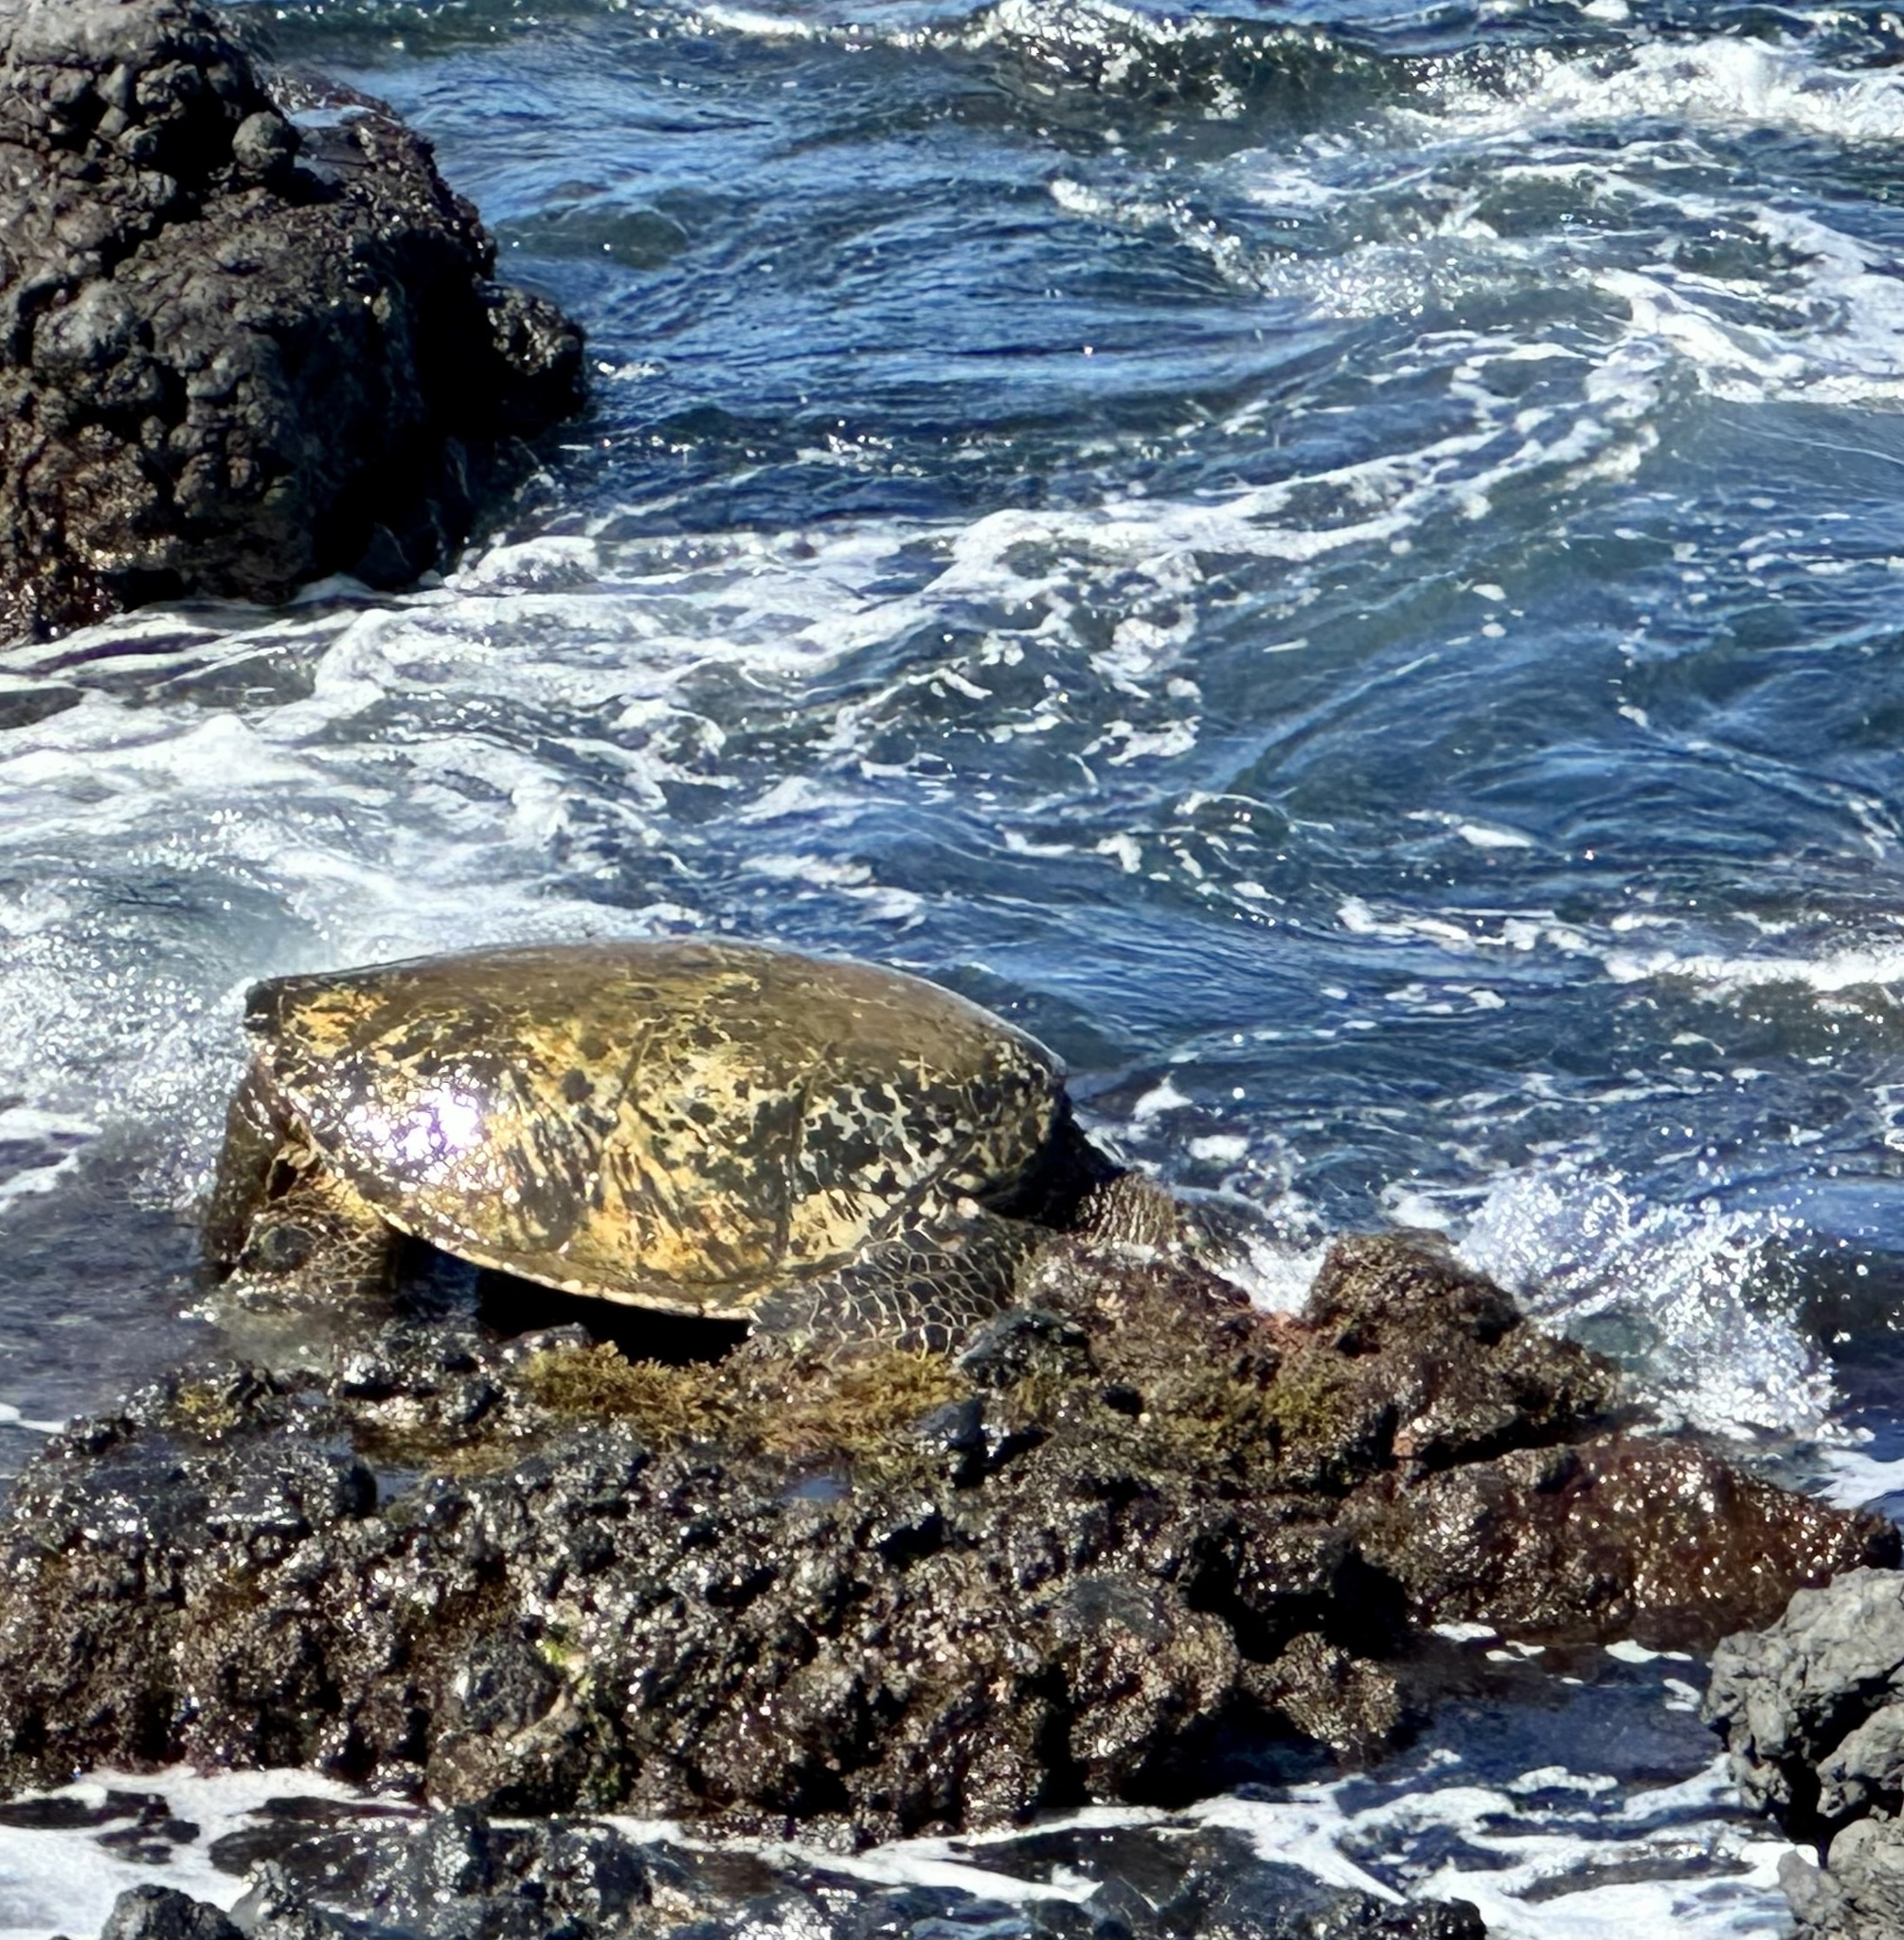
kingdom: Animalia
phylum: Chordata
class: Testudines
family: Cheloniidae
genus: Chelonia
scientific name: Chelonia mydas
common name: Green turtle
